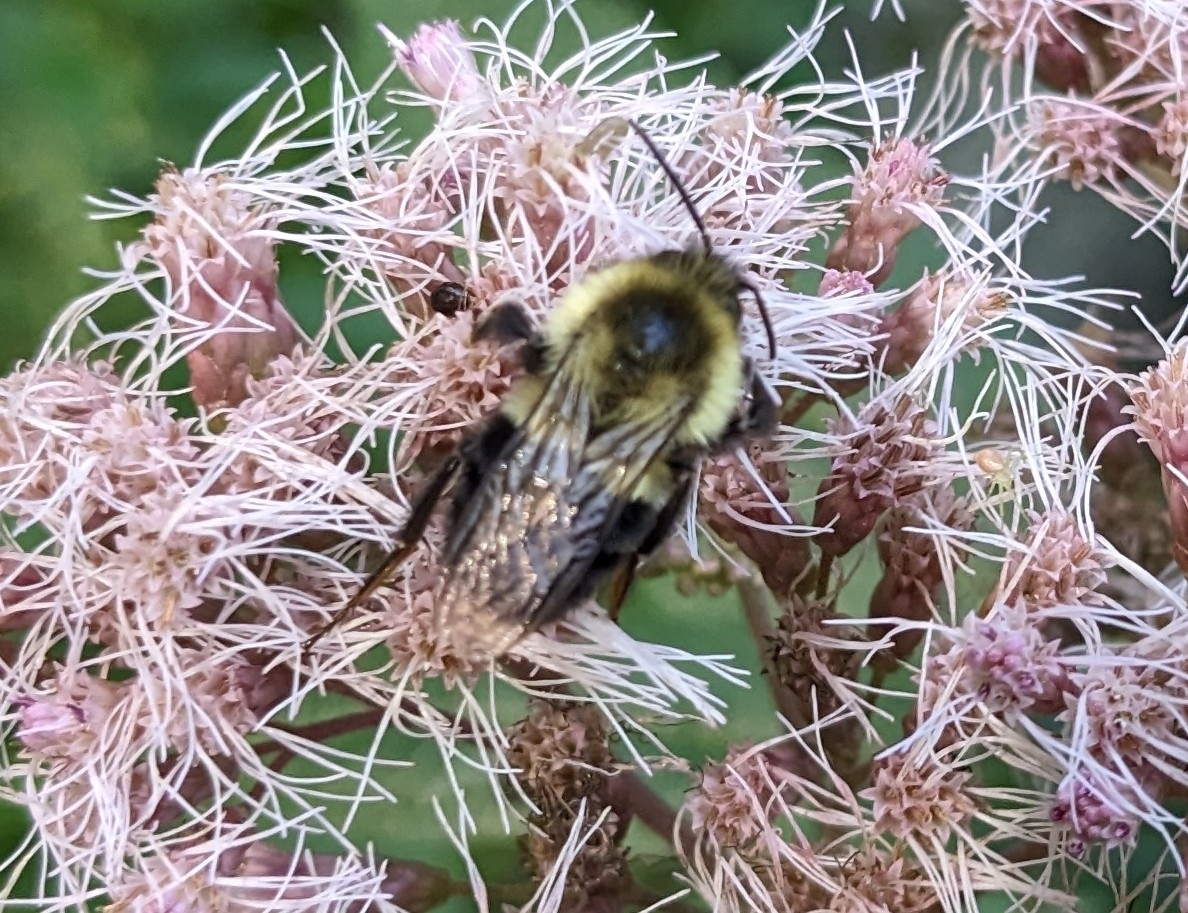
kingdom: Animalia
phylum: Arthropoda
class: Insecta
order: Hymenoptera
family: Apidae
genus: Bombus
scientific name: Bombus impatiens
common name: Common eastern bumble bee
